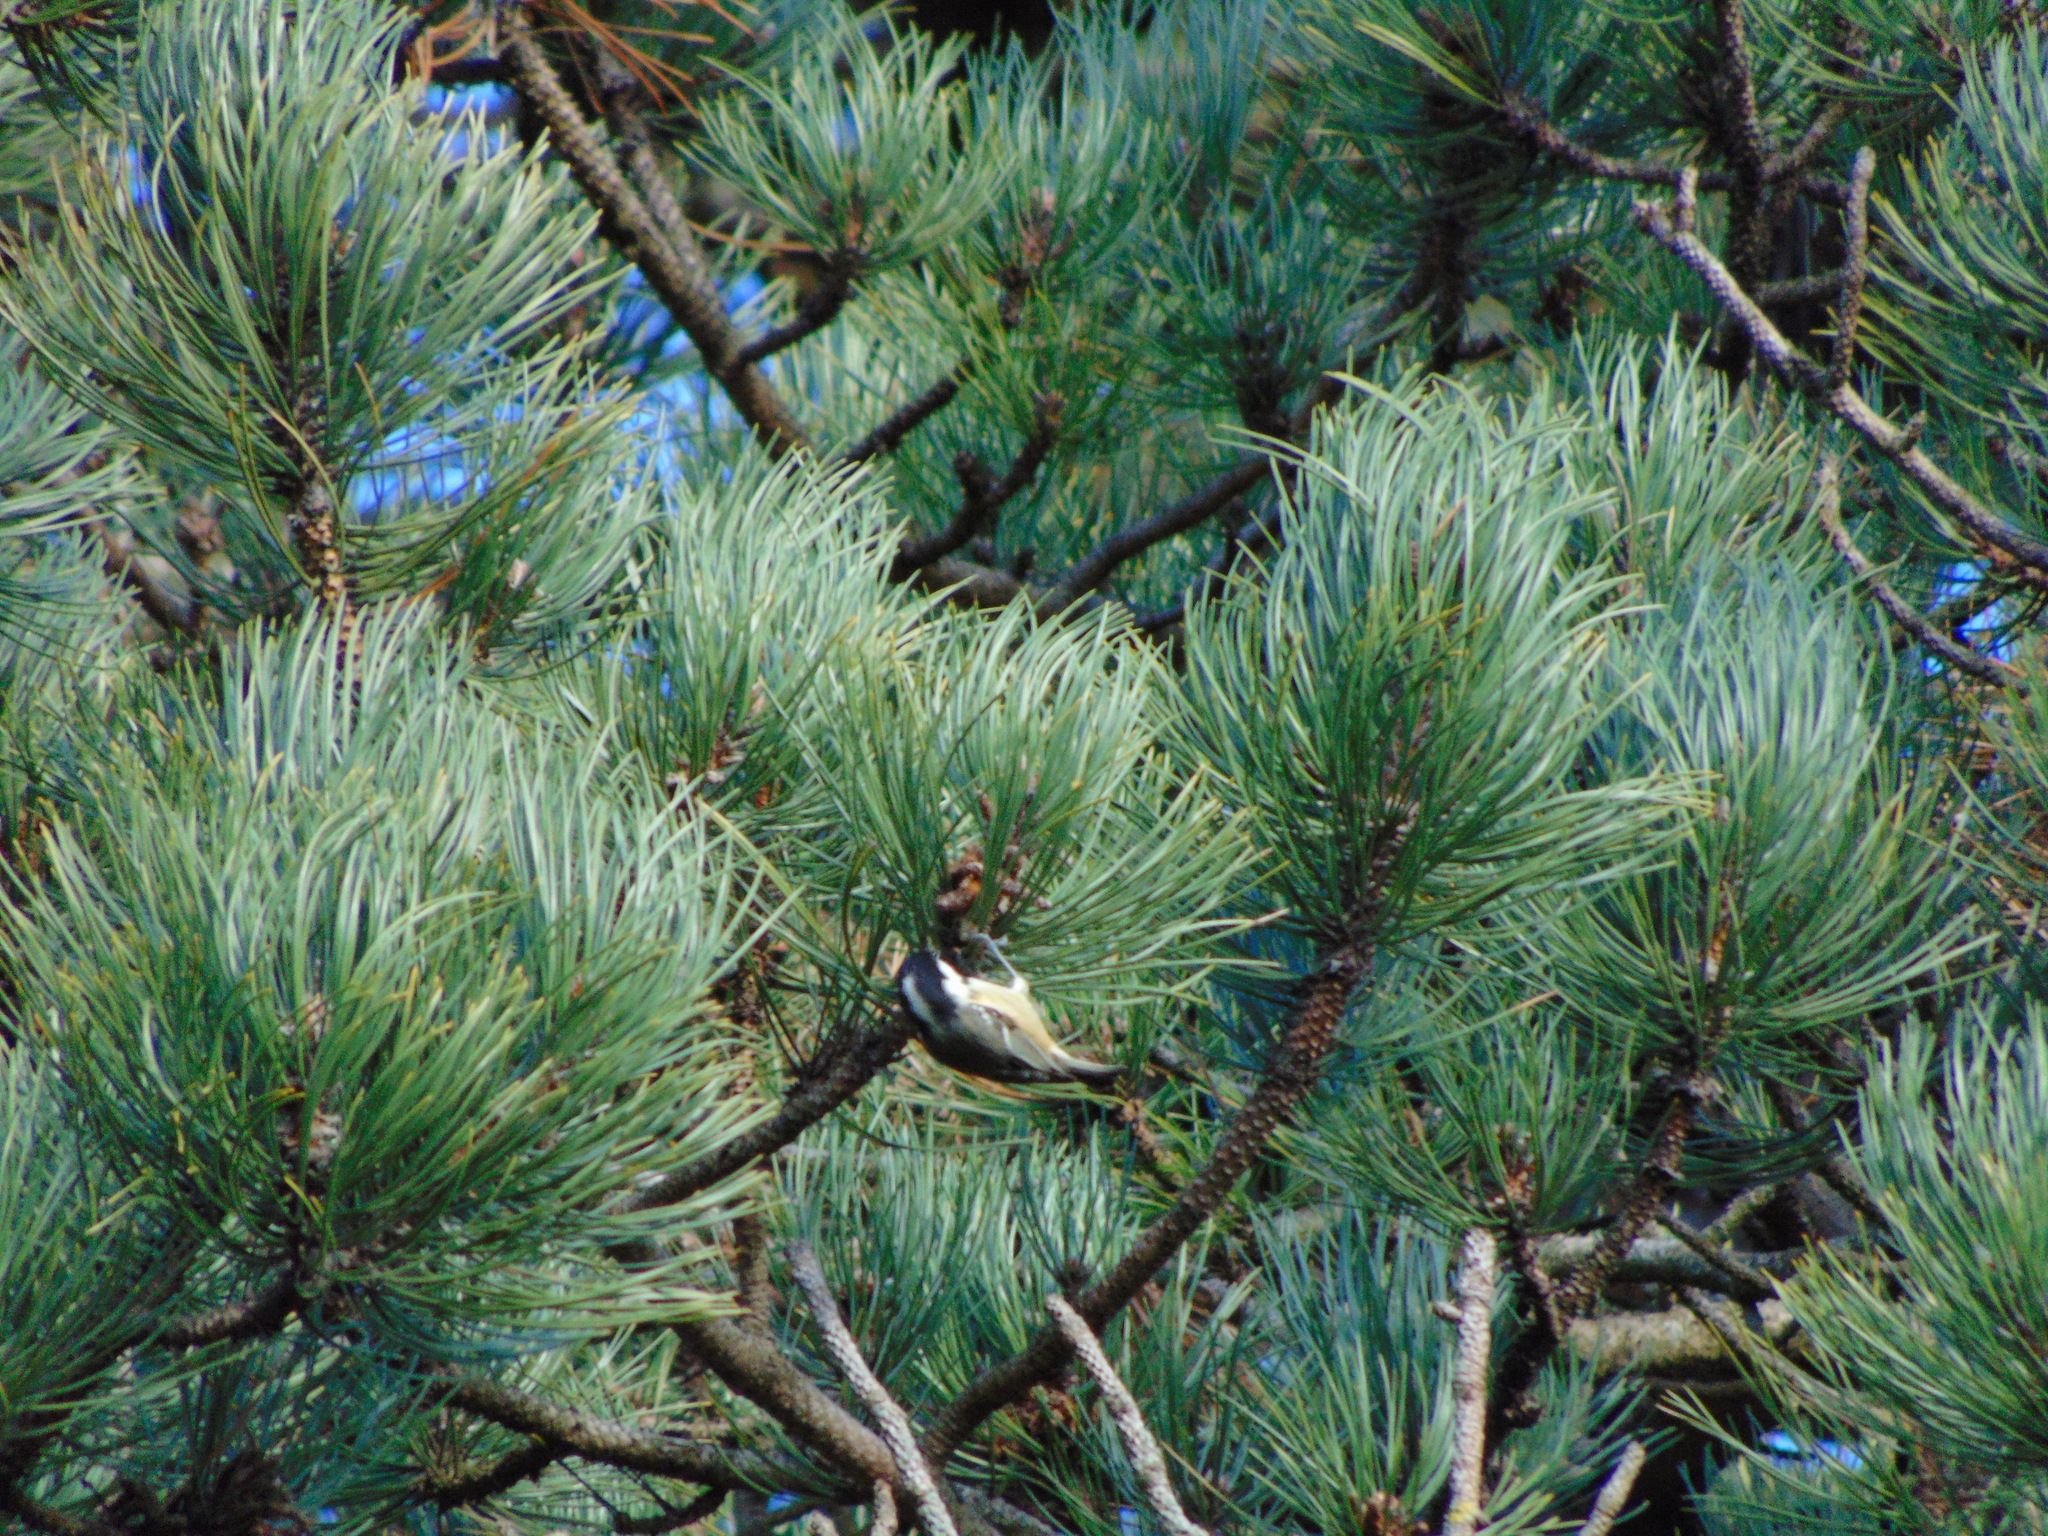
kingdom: Animalia
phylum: Chordata
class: Aves
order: Passeriformes
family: Paridae
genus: Periparus
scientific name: Periparus ater
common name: Coal tit
